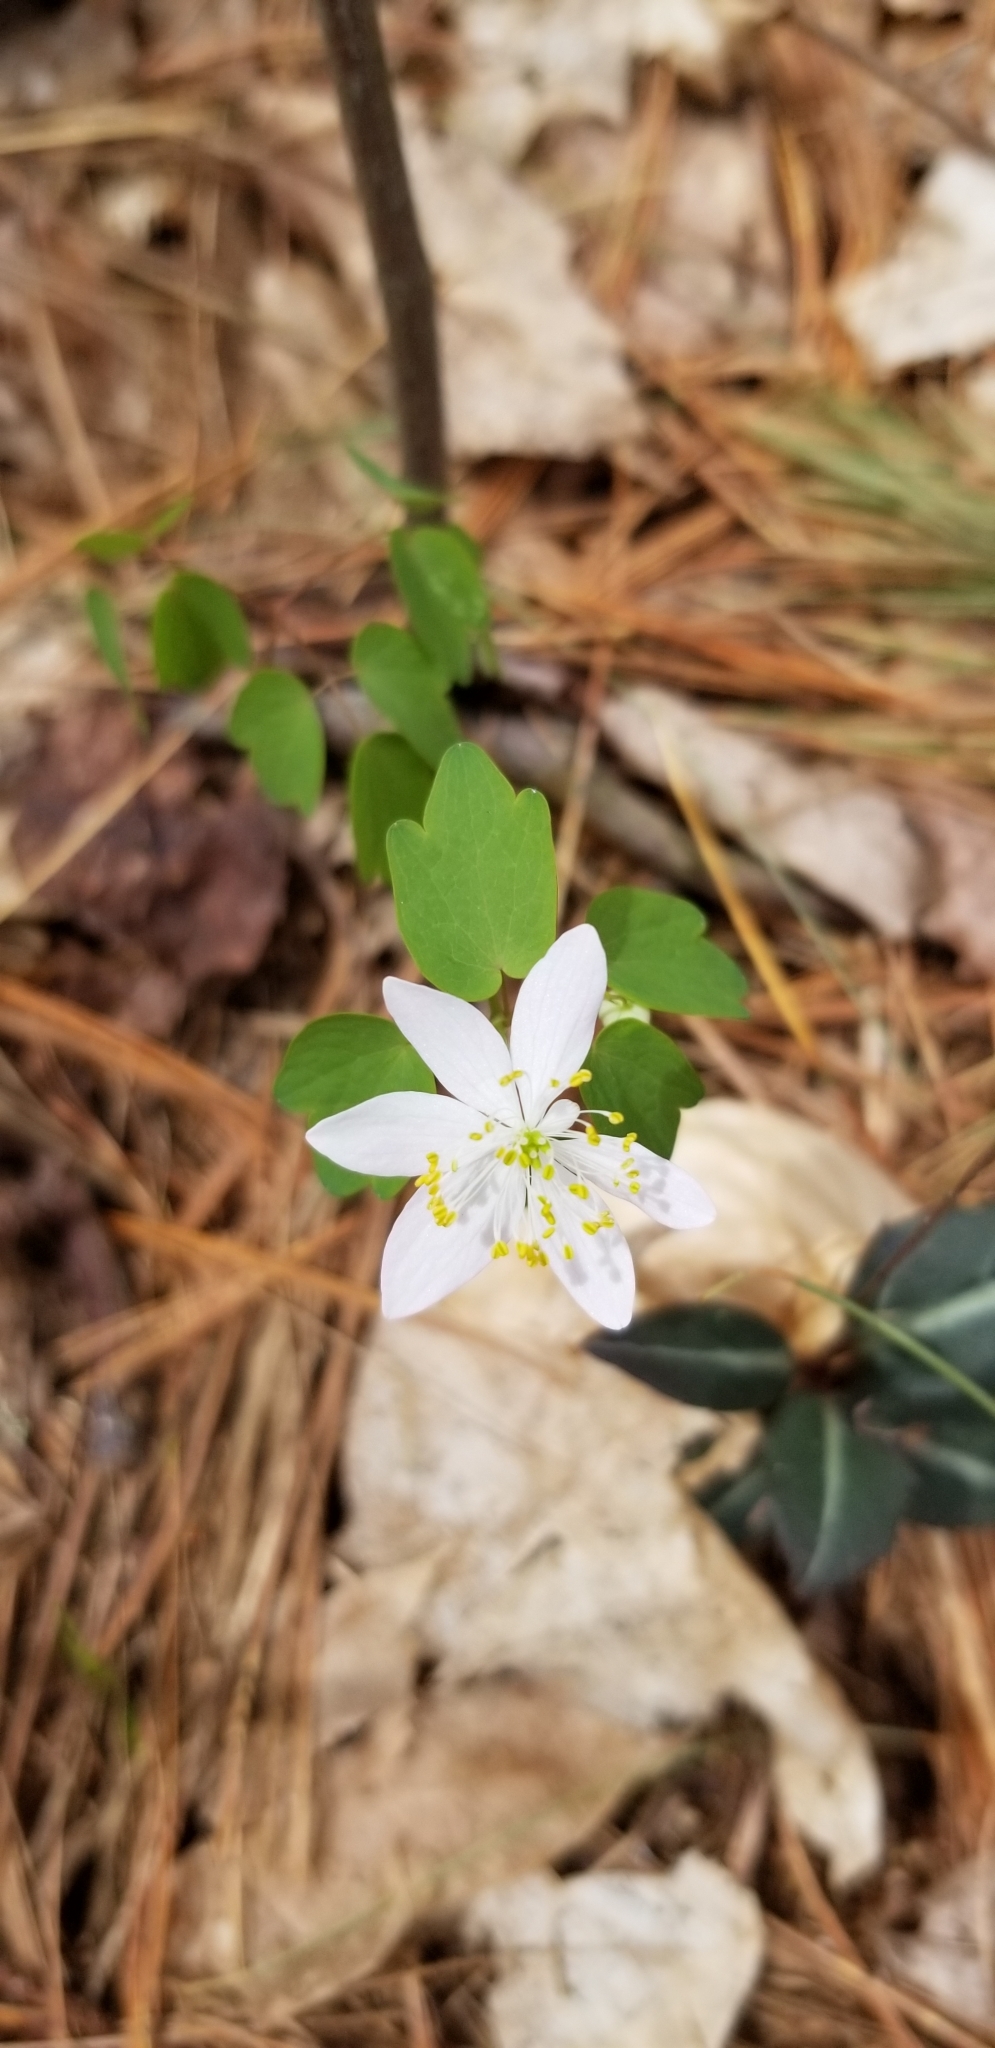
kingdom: Plantae
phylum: Tracheophyta
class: Magnoliopsida
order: Ranunculales
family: Ranunculaceae
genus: Thalictrum
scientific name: Thalictrum thalictroides
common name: Rue-anemone
